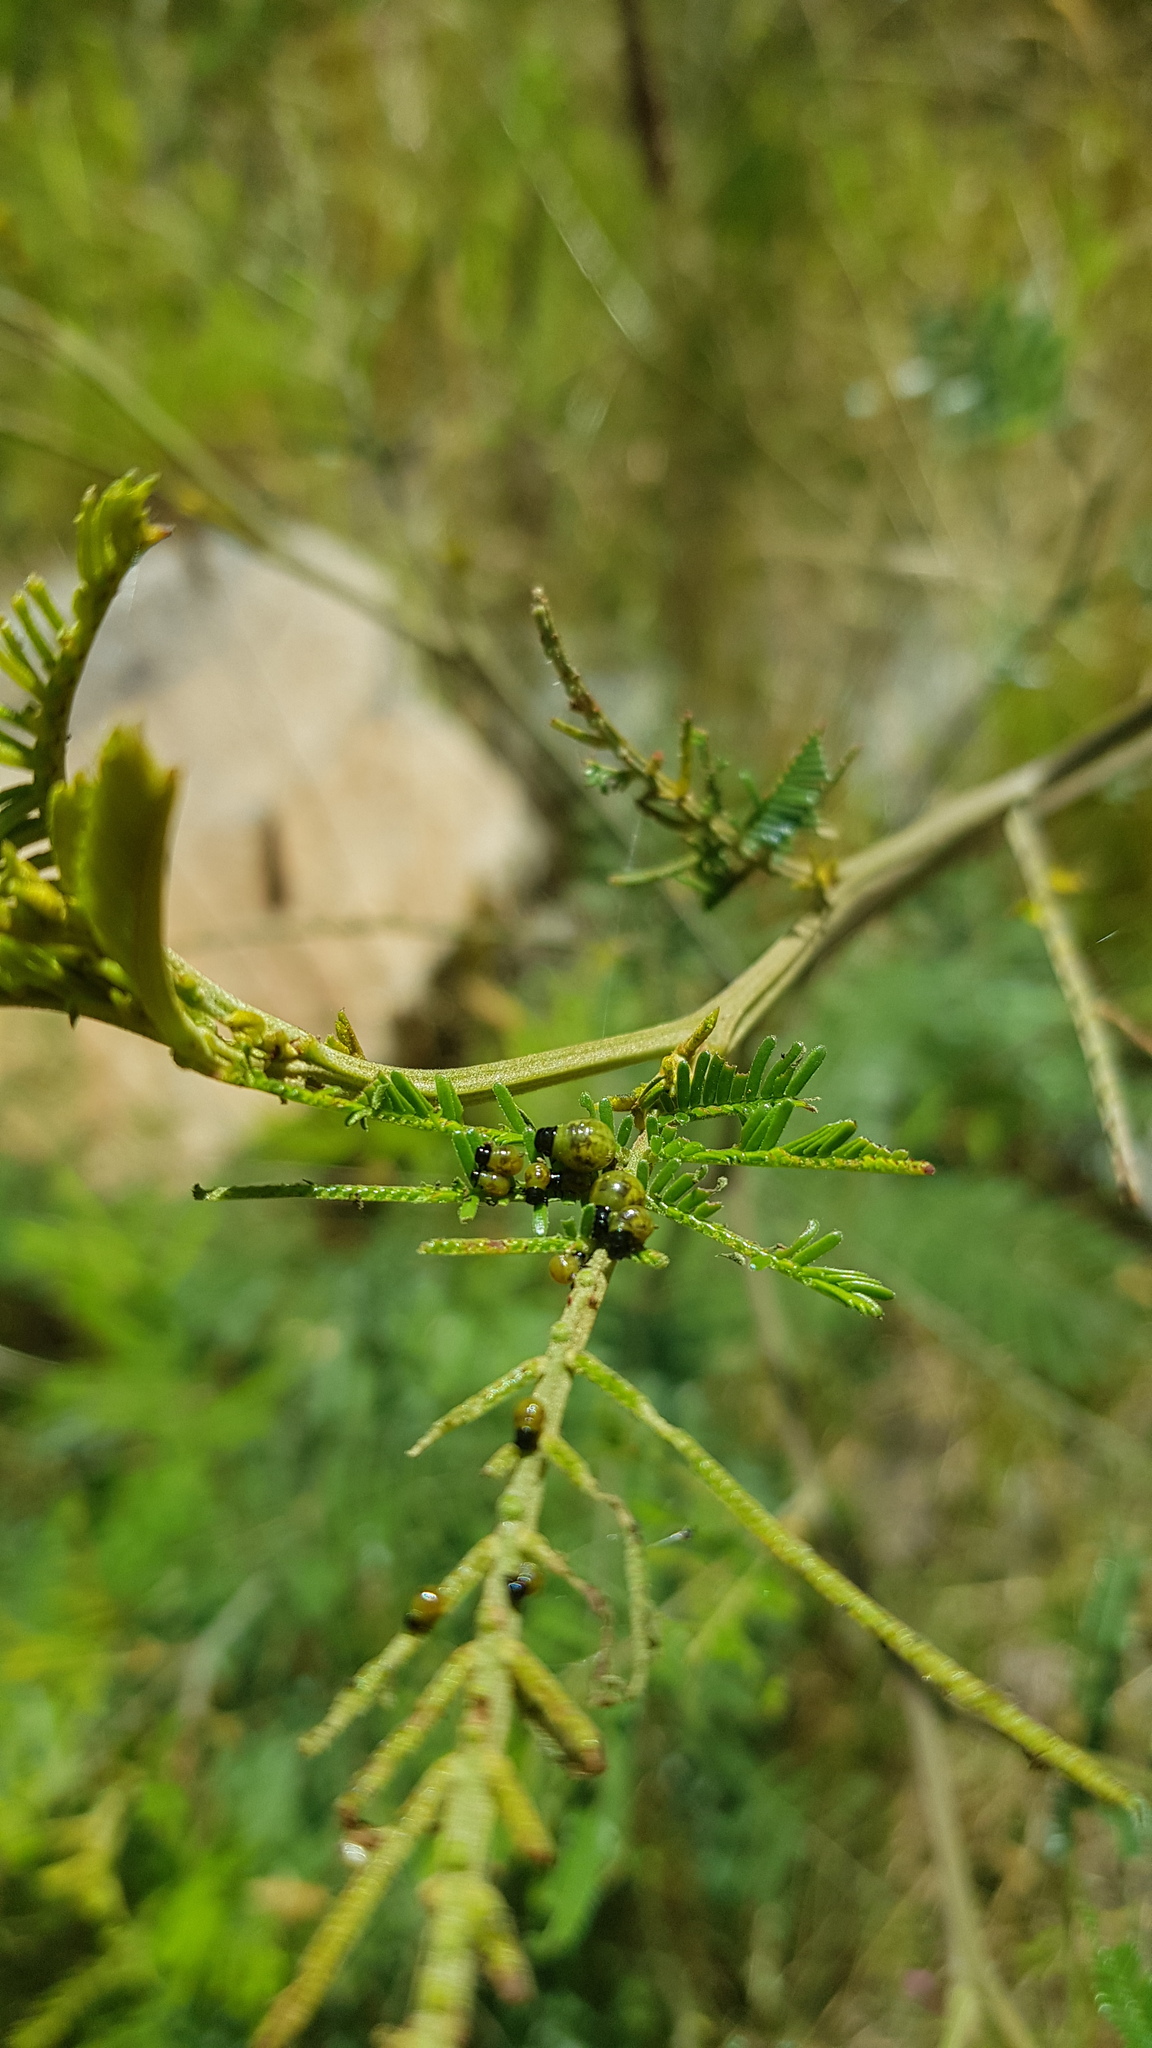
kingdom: Animalia
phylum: Arthropoda
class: Insecta
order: Coleoptera
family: Chrysomelidae
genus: Calomela
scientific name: Calomela
